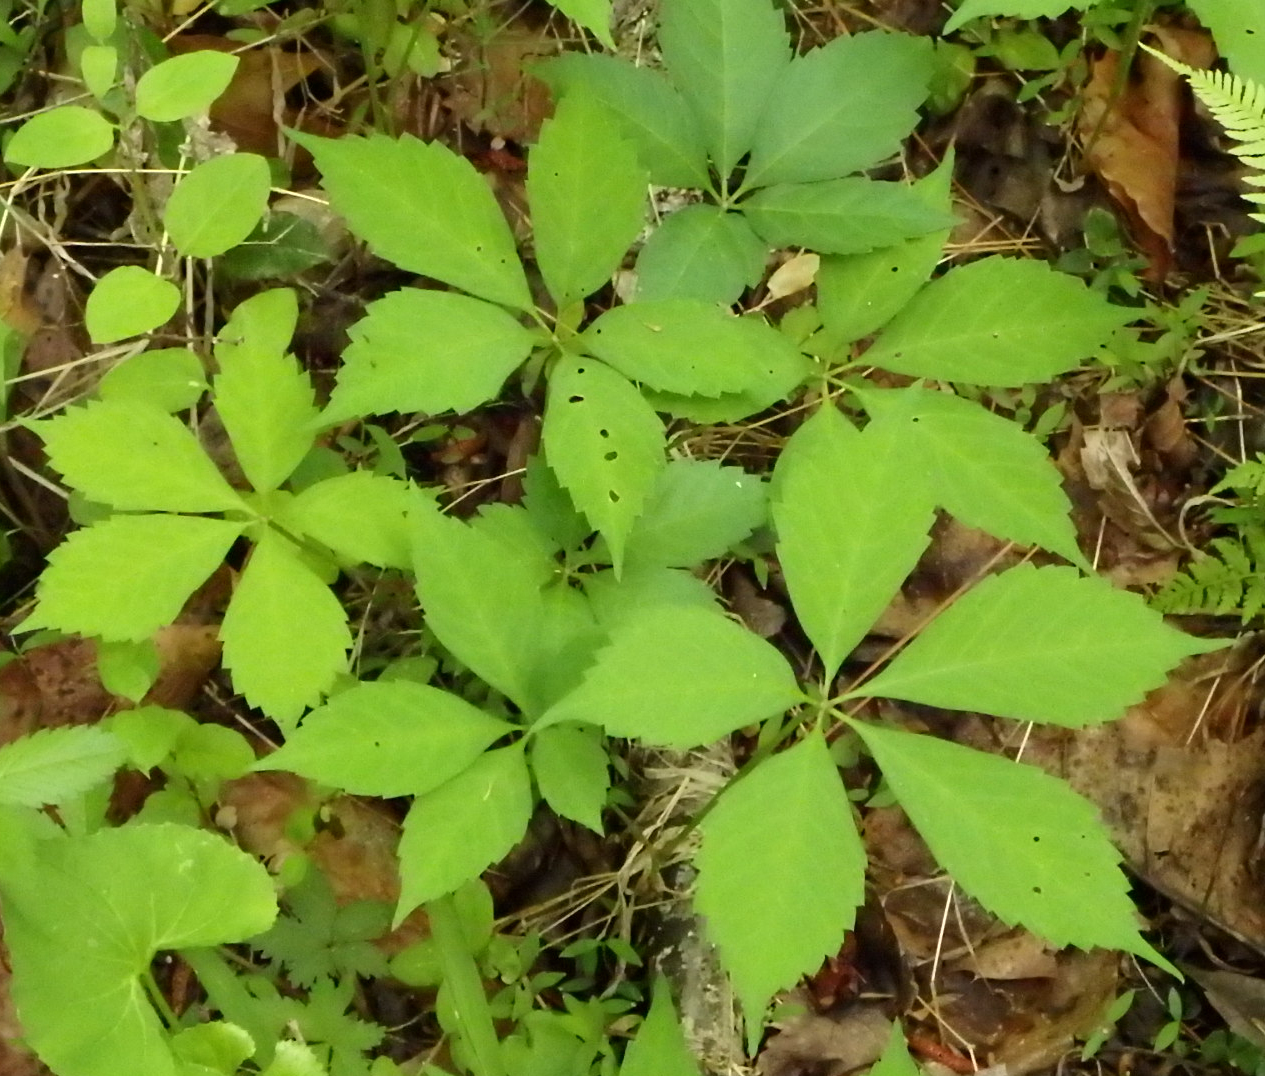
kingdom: Plantae
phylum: Tracheophyta
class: Magnoliopsida
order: Vitales
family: Vitaceae
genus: Parthenocissus
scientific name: Parthenocissus quinquefolia
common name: Virginia-creeper
